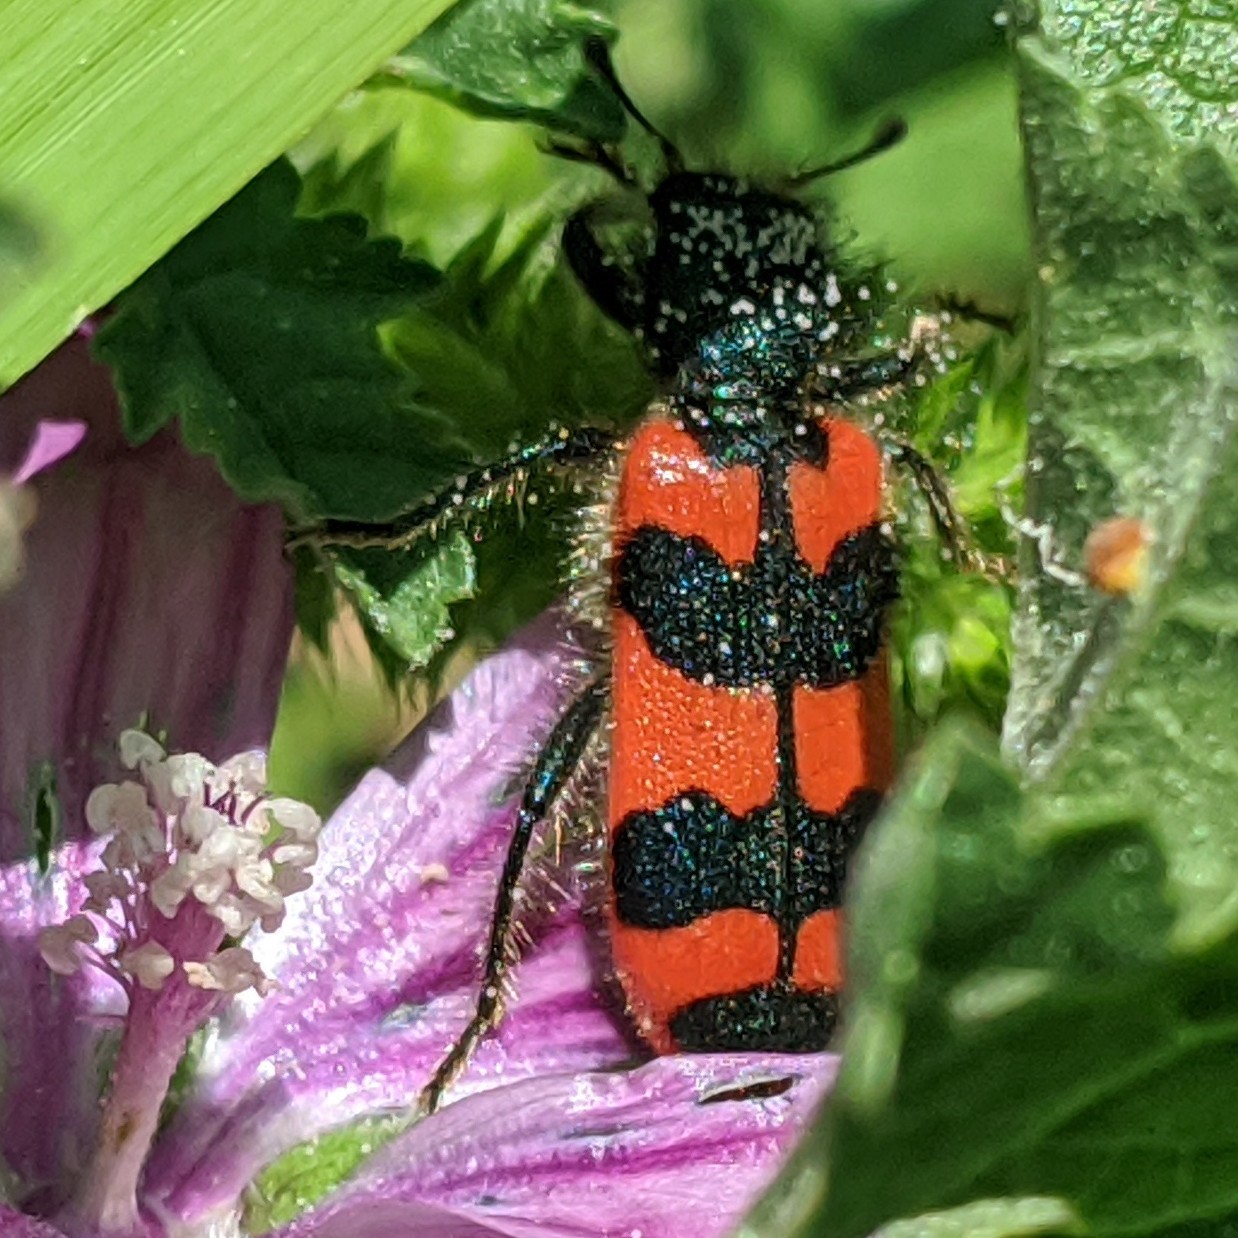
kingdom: Animalia
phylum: Arthropoda
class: Insecta
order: Coleoptera
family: Cleridae
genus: Trichodes
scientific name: Trichodes alvearius
